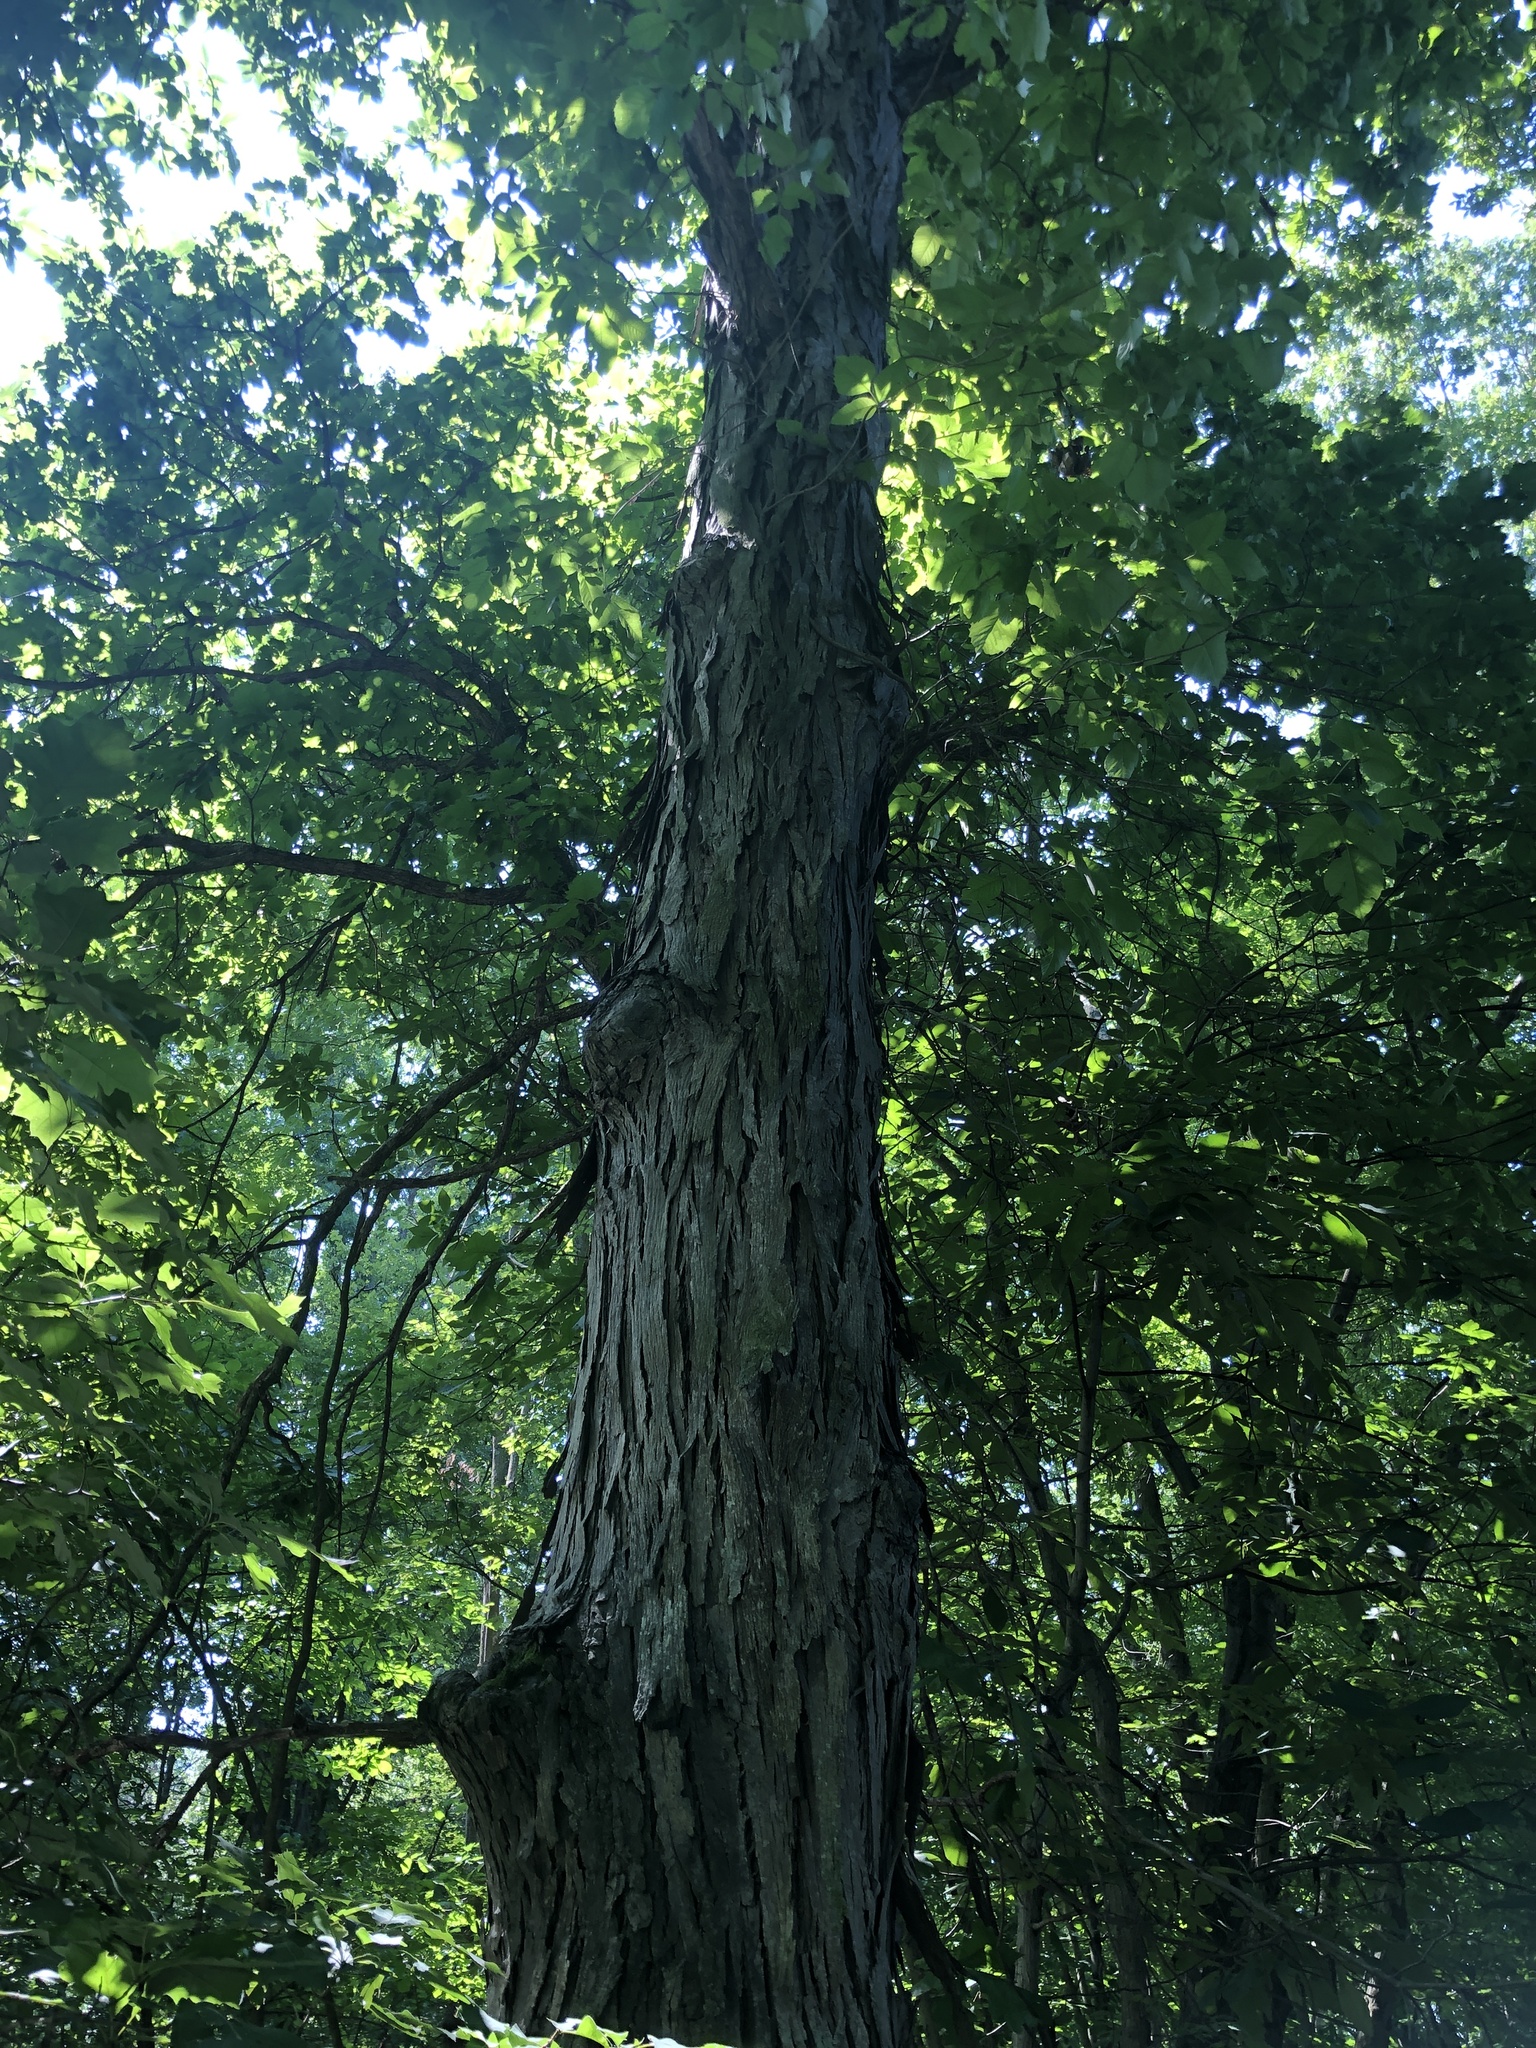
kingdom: Plantae
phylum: Tracheophyta
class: Magnoliopsida
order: Fagales
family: Juglandaceae
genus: Carya
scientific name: Carya ovata
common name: Shagbark hickory
